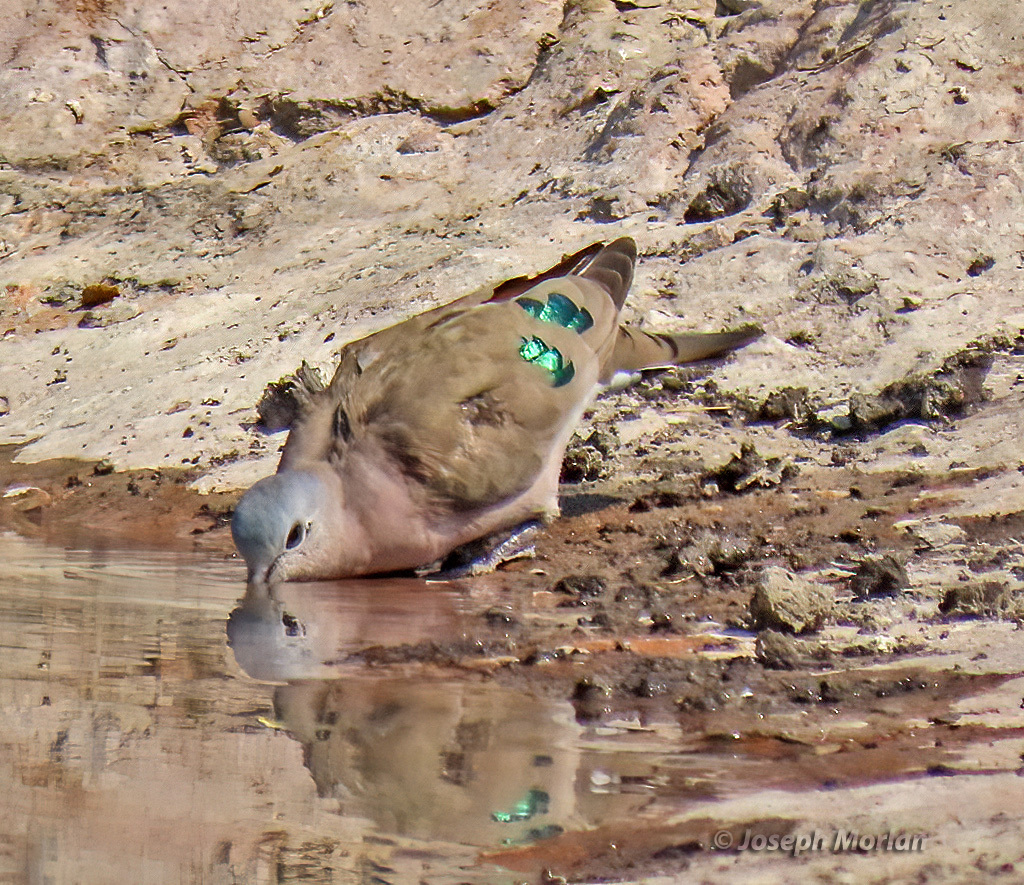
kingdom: Animalia
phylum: Chordata
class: Aves
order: Columbiformes
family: Columbidae
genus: Turtur
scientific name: Turtur chalcospilos
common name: Emerald-spotted wood dove
